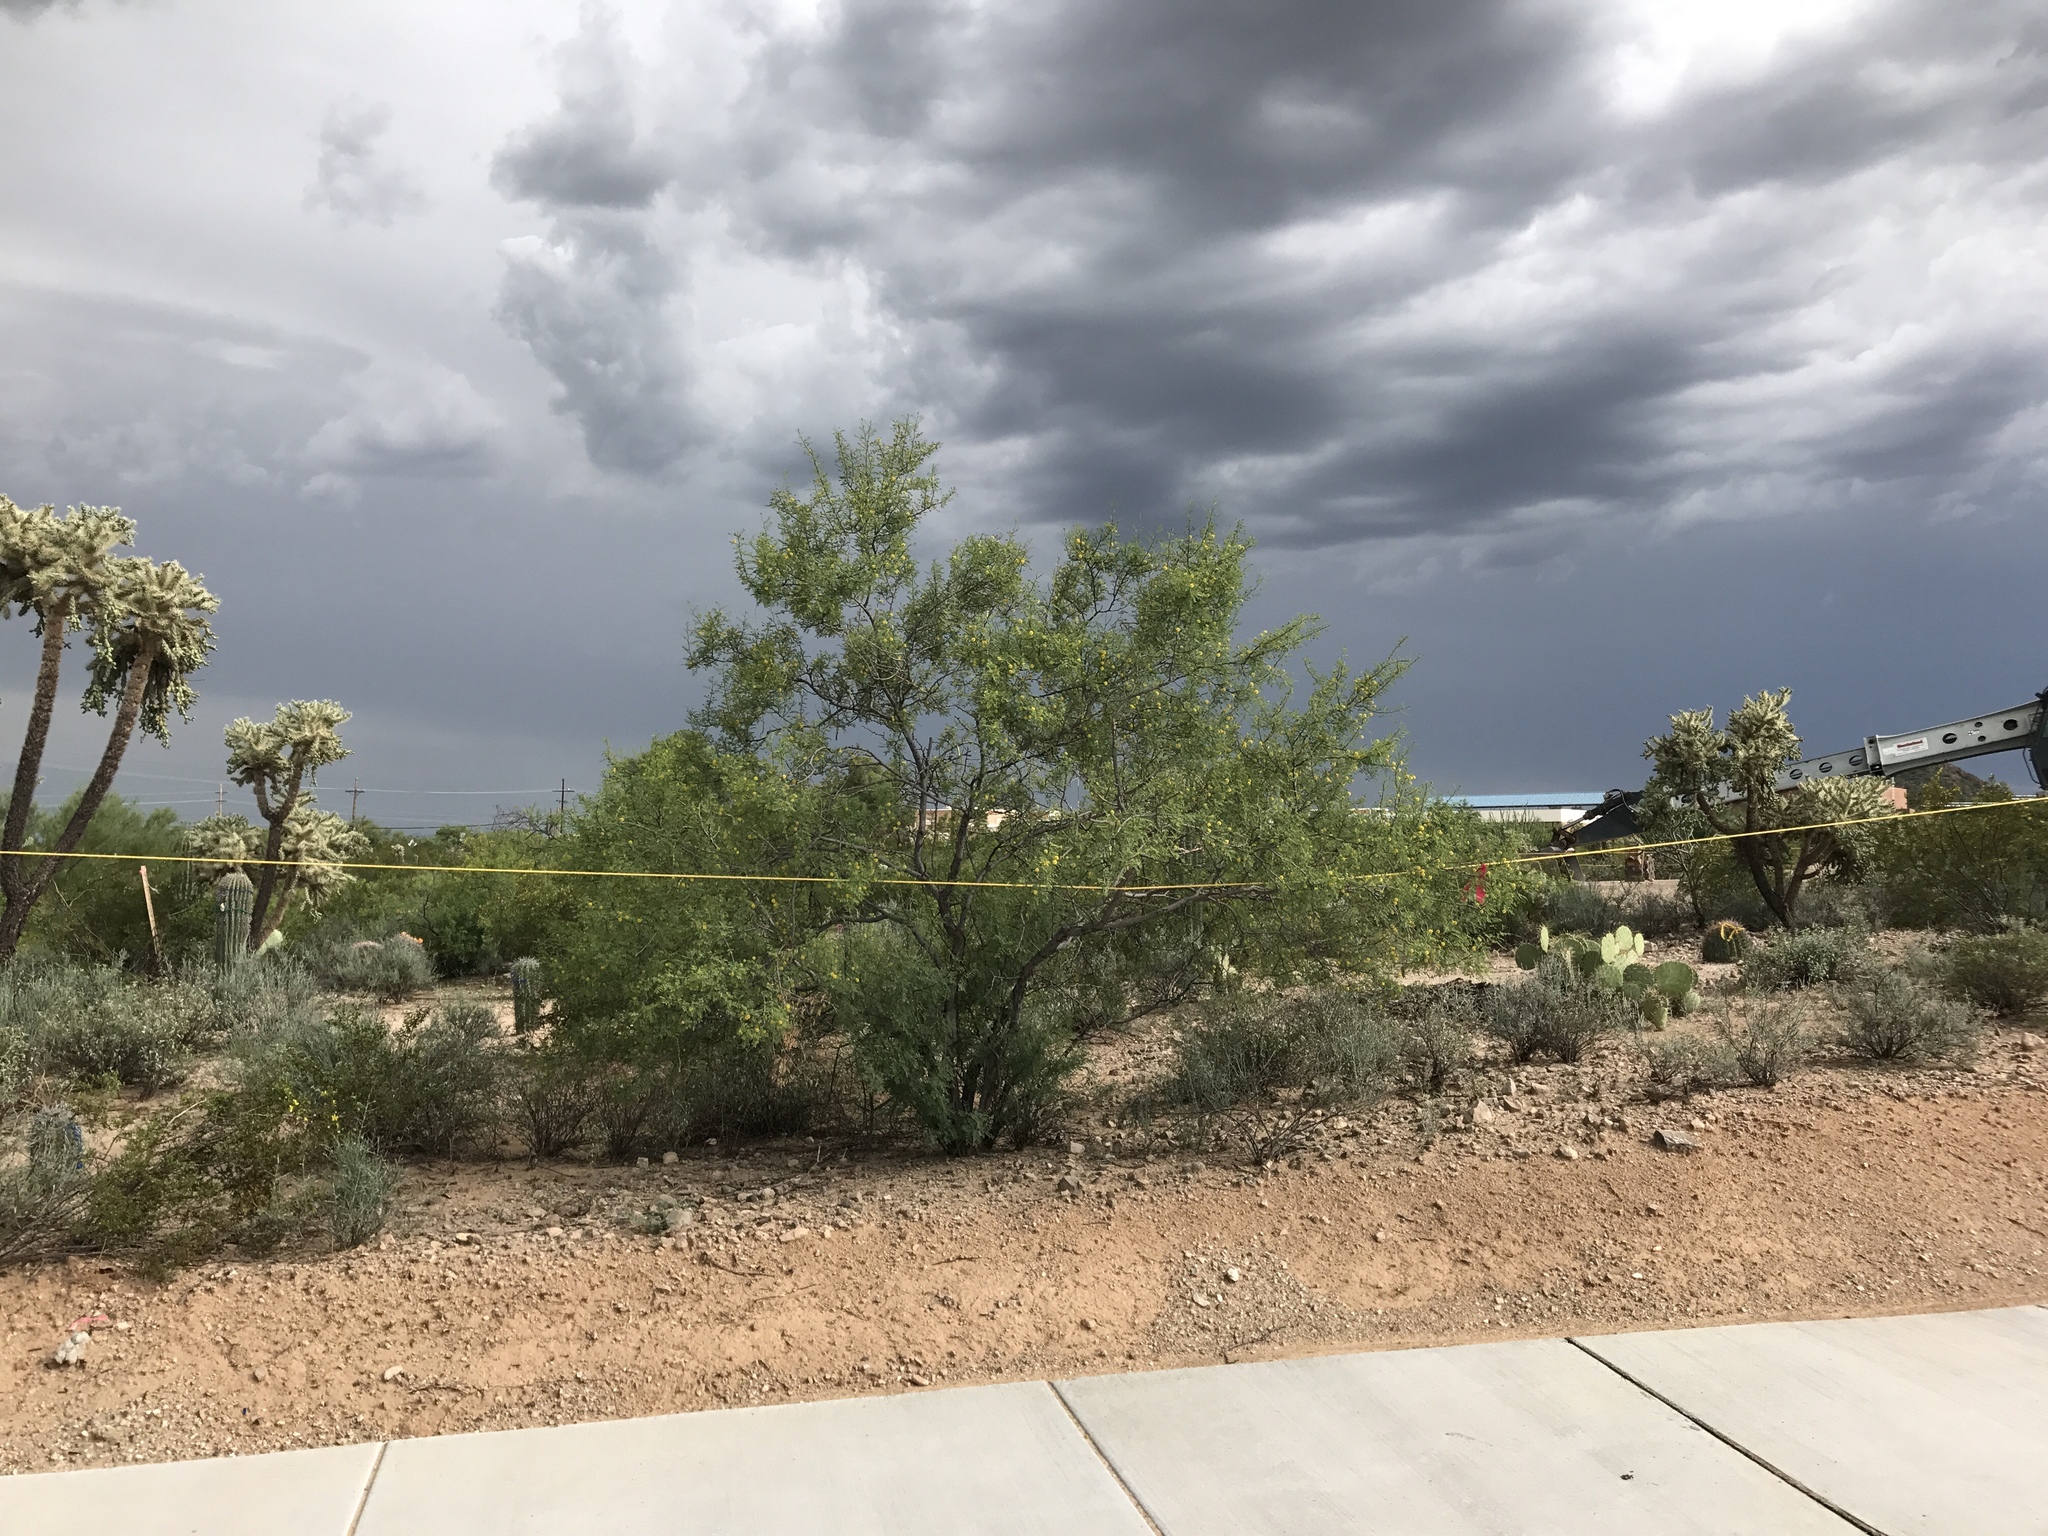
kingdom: Plantae
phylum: Tracheophyta
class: Magnoliopsida
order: Zygophyllales
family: Zygophyllaceae
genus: Larrea
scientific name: Larrea tridentata
